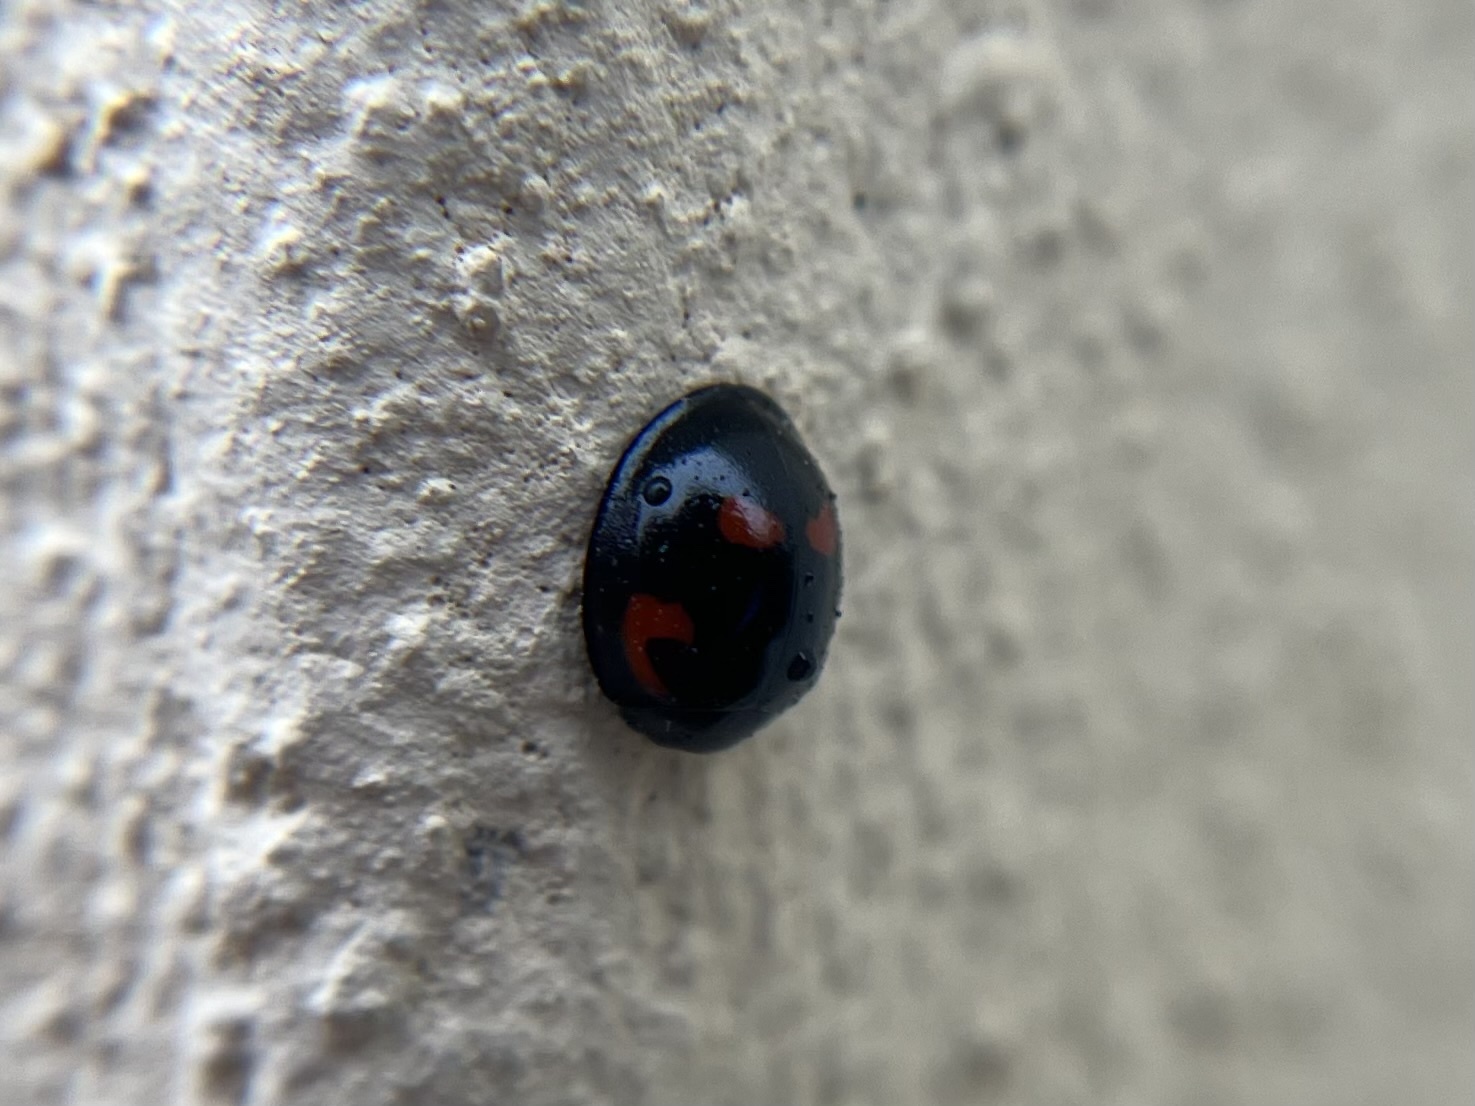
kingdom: Animalia
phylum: Arthropoda
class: Insecta
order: Coleoptera
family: Coccinellidae
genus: Brumus
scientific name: Brumus quadripustulatus
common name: Ladybird beetle
